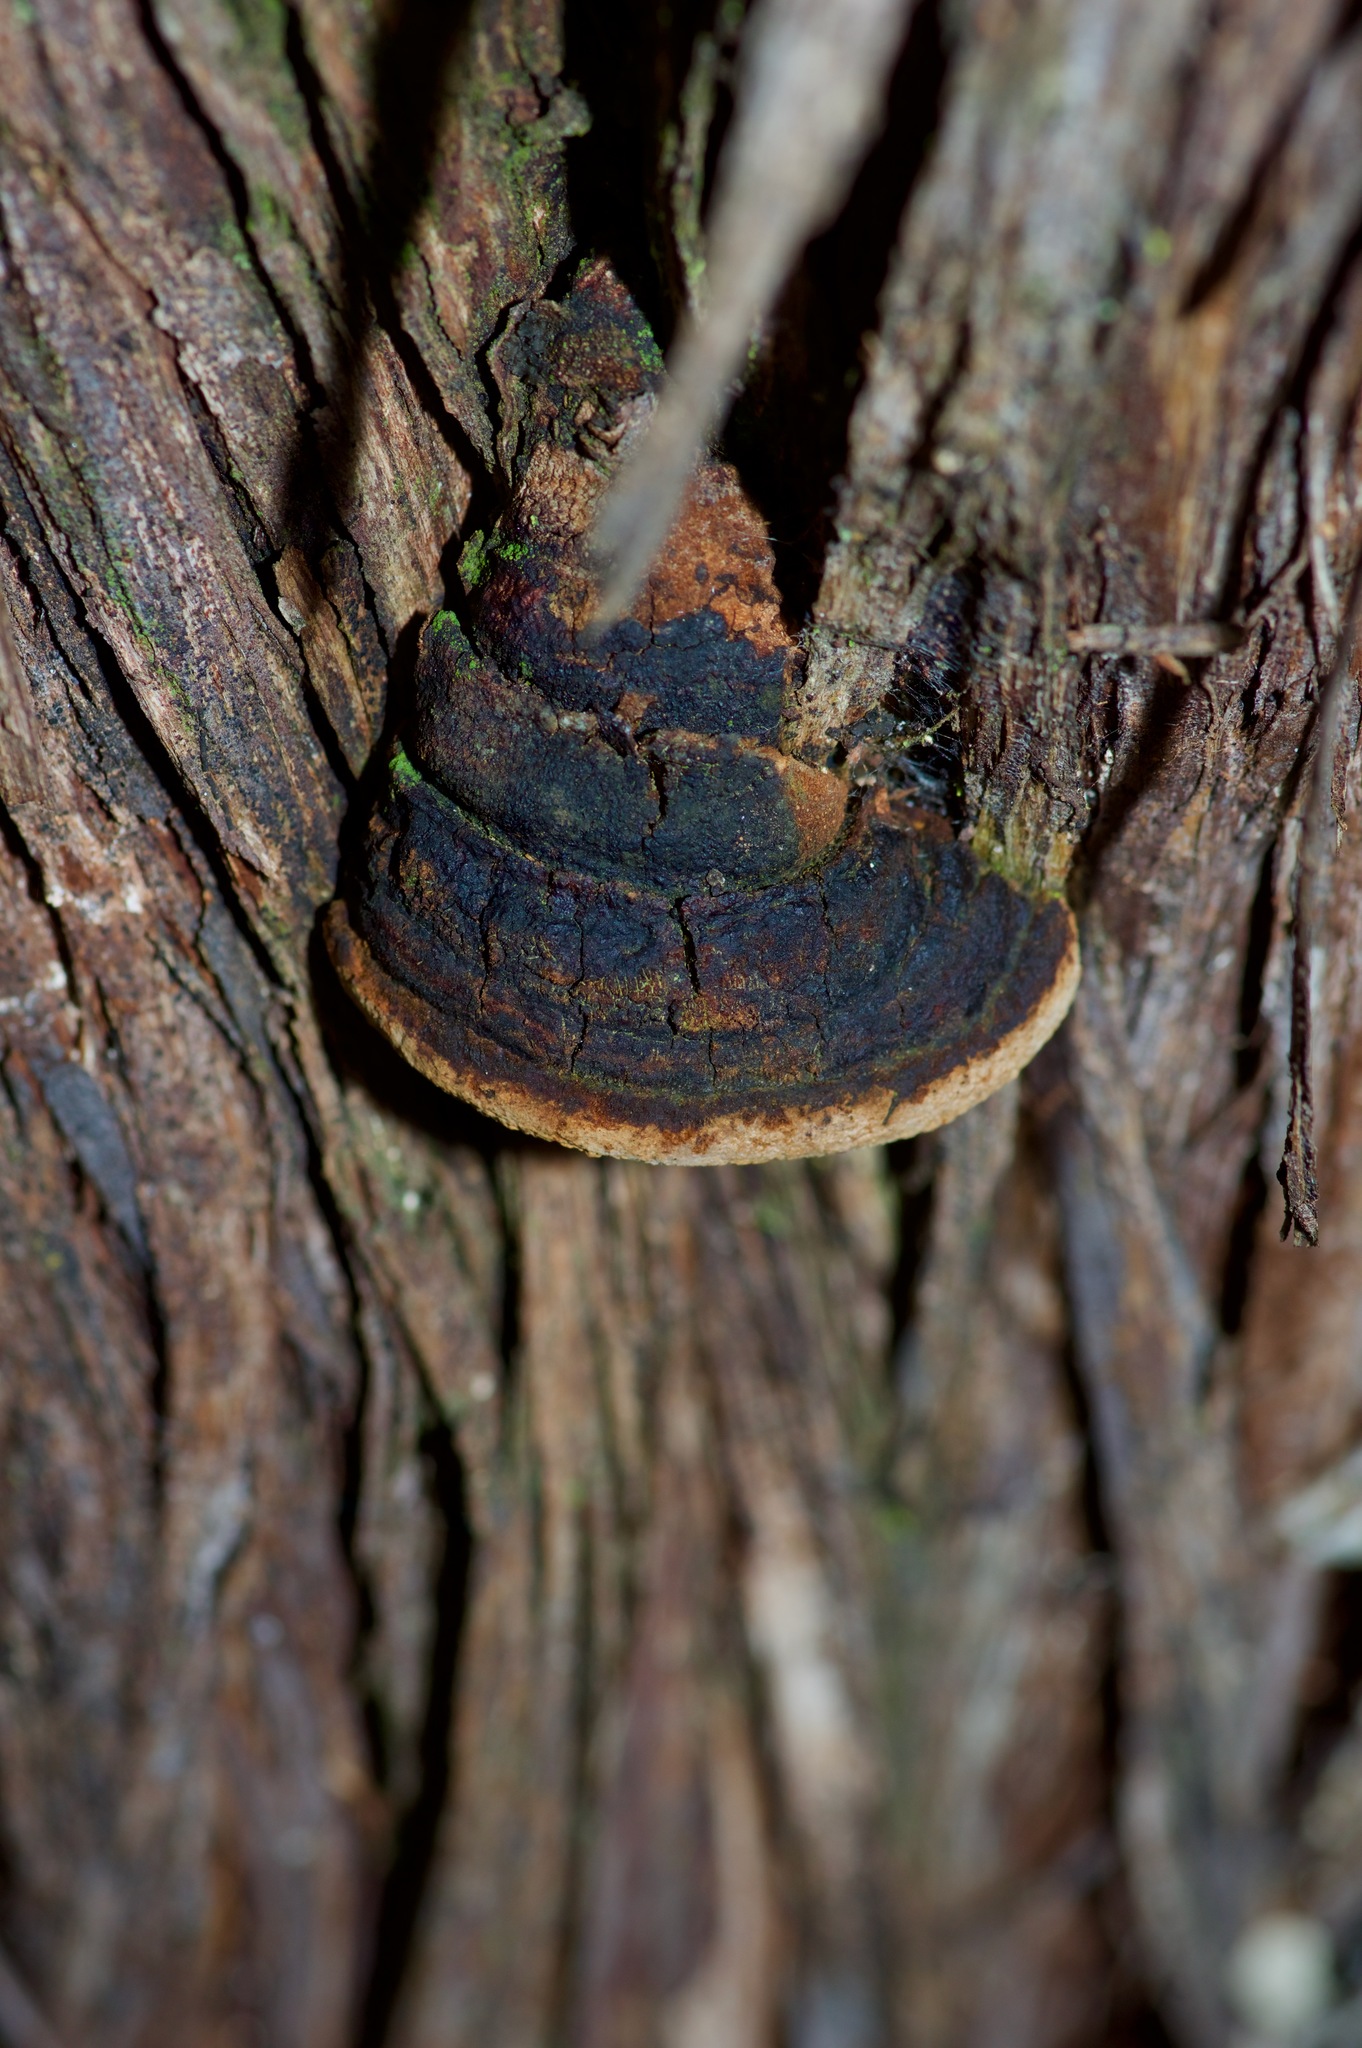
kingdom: Fungi
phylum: Basidiomycota
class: Agaricomycetes
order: Hymenochaetales
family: Hymenochaetaceae
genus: Fomitiporia
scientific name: Fomitiporia texana
